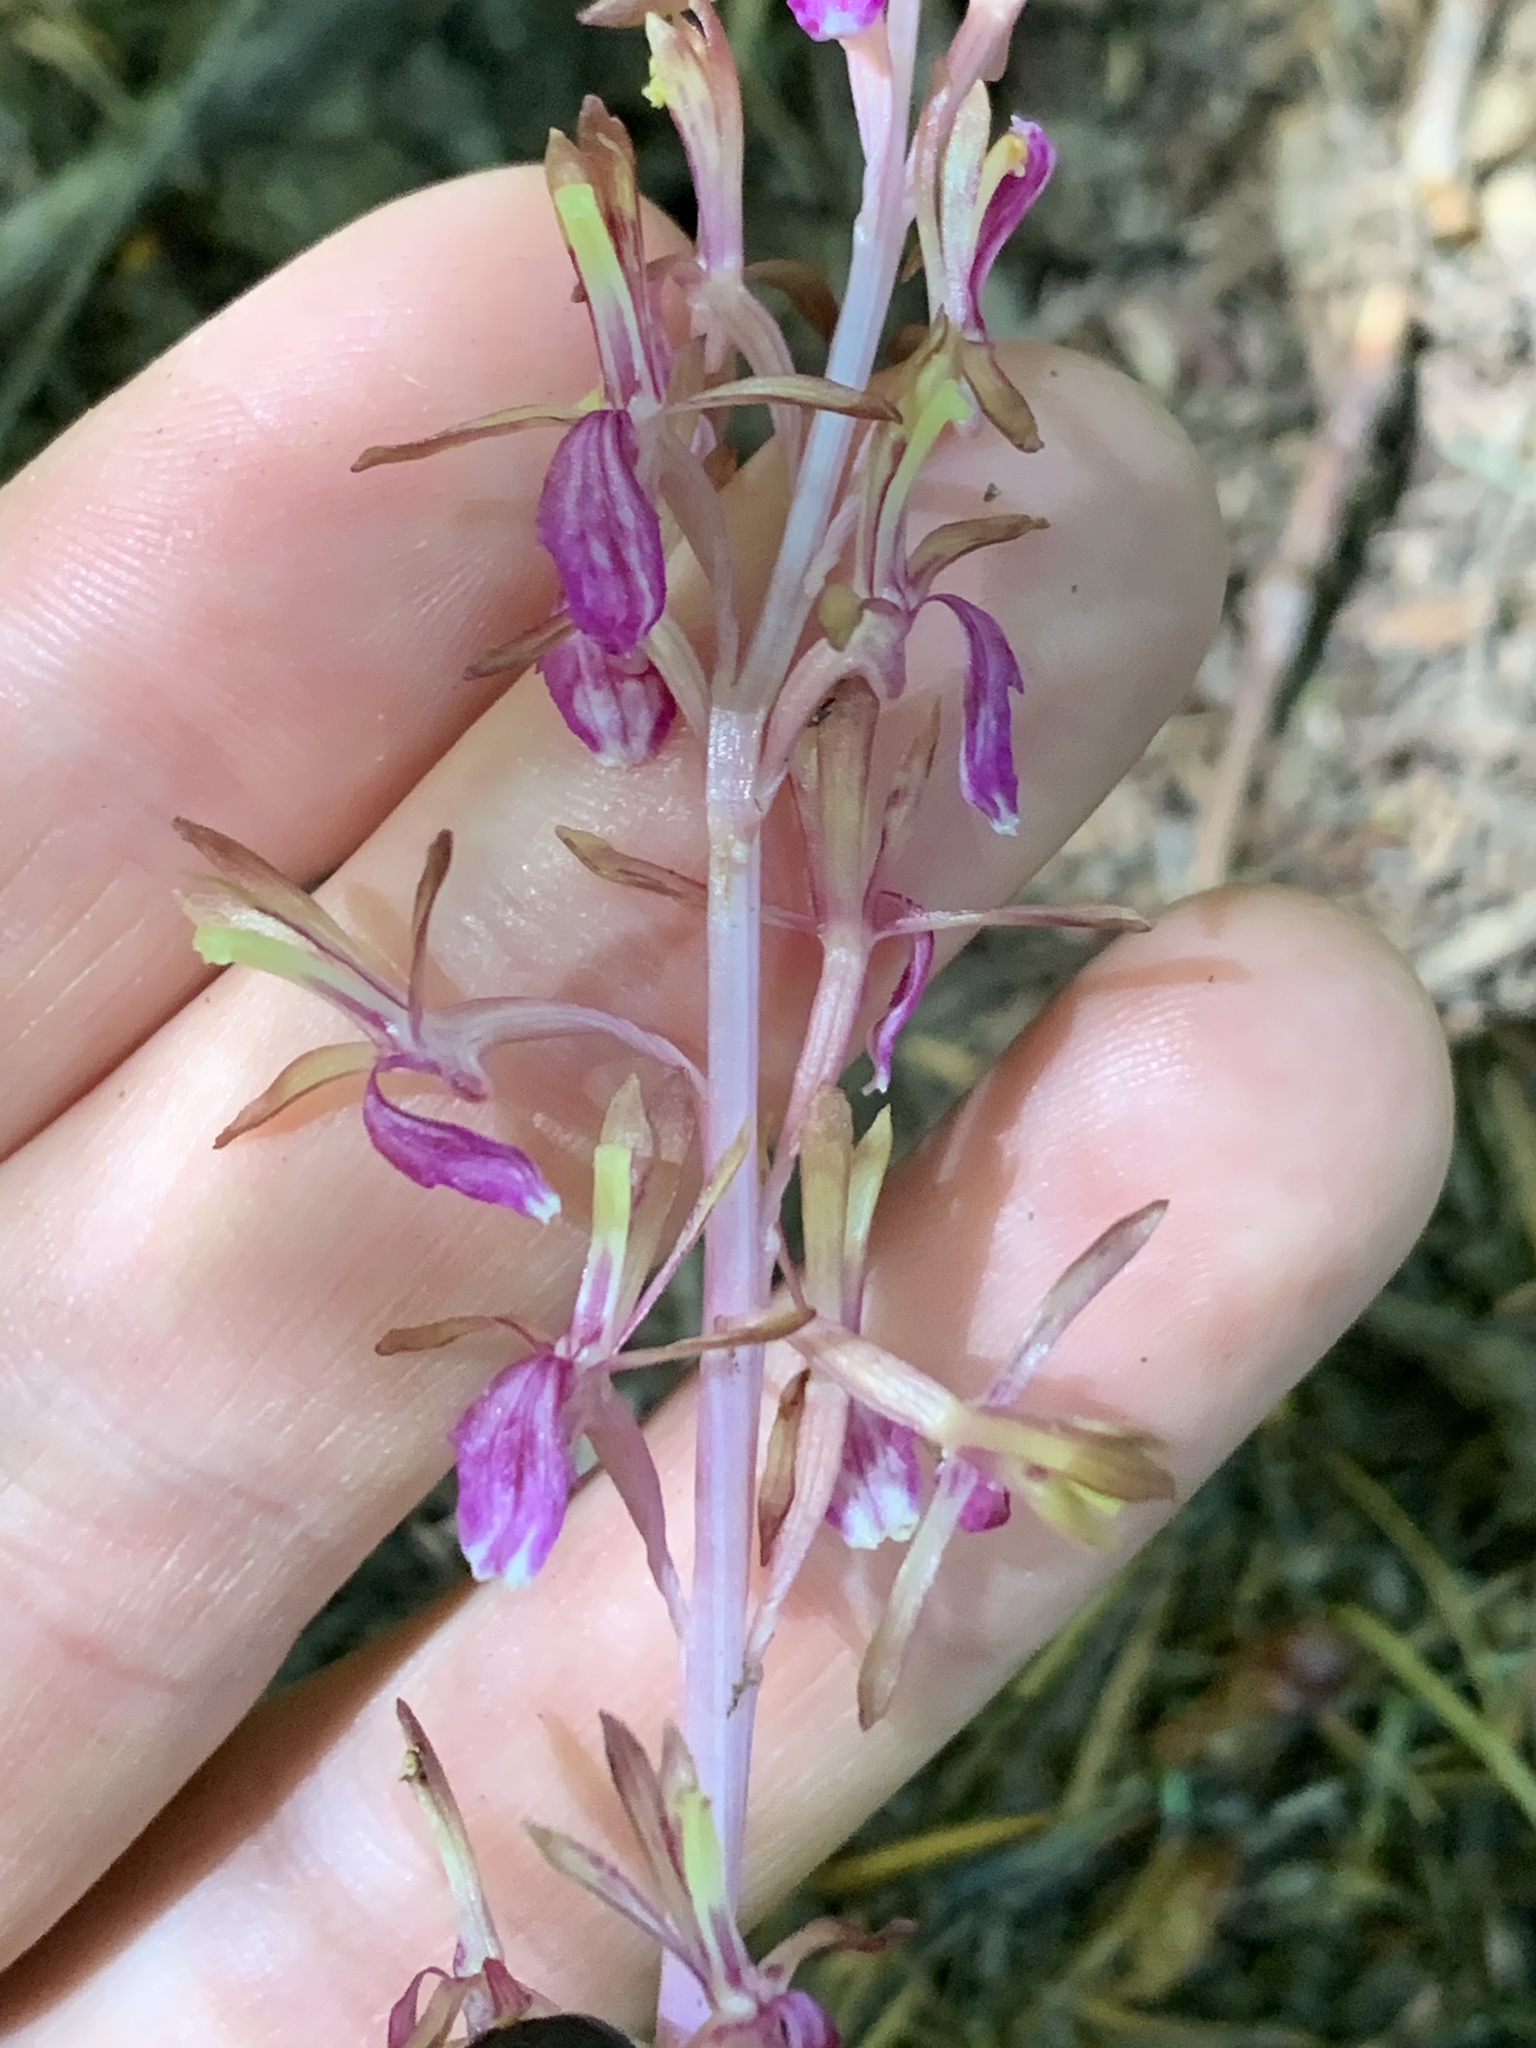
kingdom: Plantae
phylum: Tracheophyta
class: Liliopsida
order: Asparagales
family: Orchidaceae
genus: Corallorhiza
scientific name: Corallorhiza mertensiana
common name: Pacific coralroot
